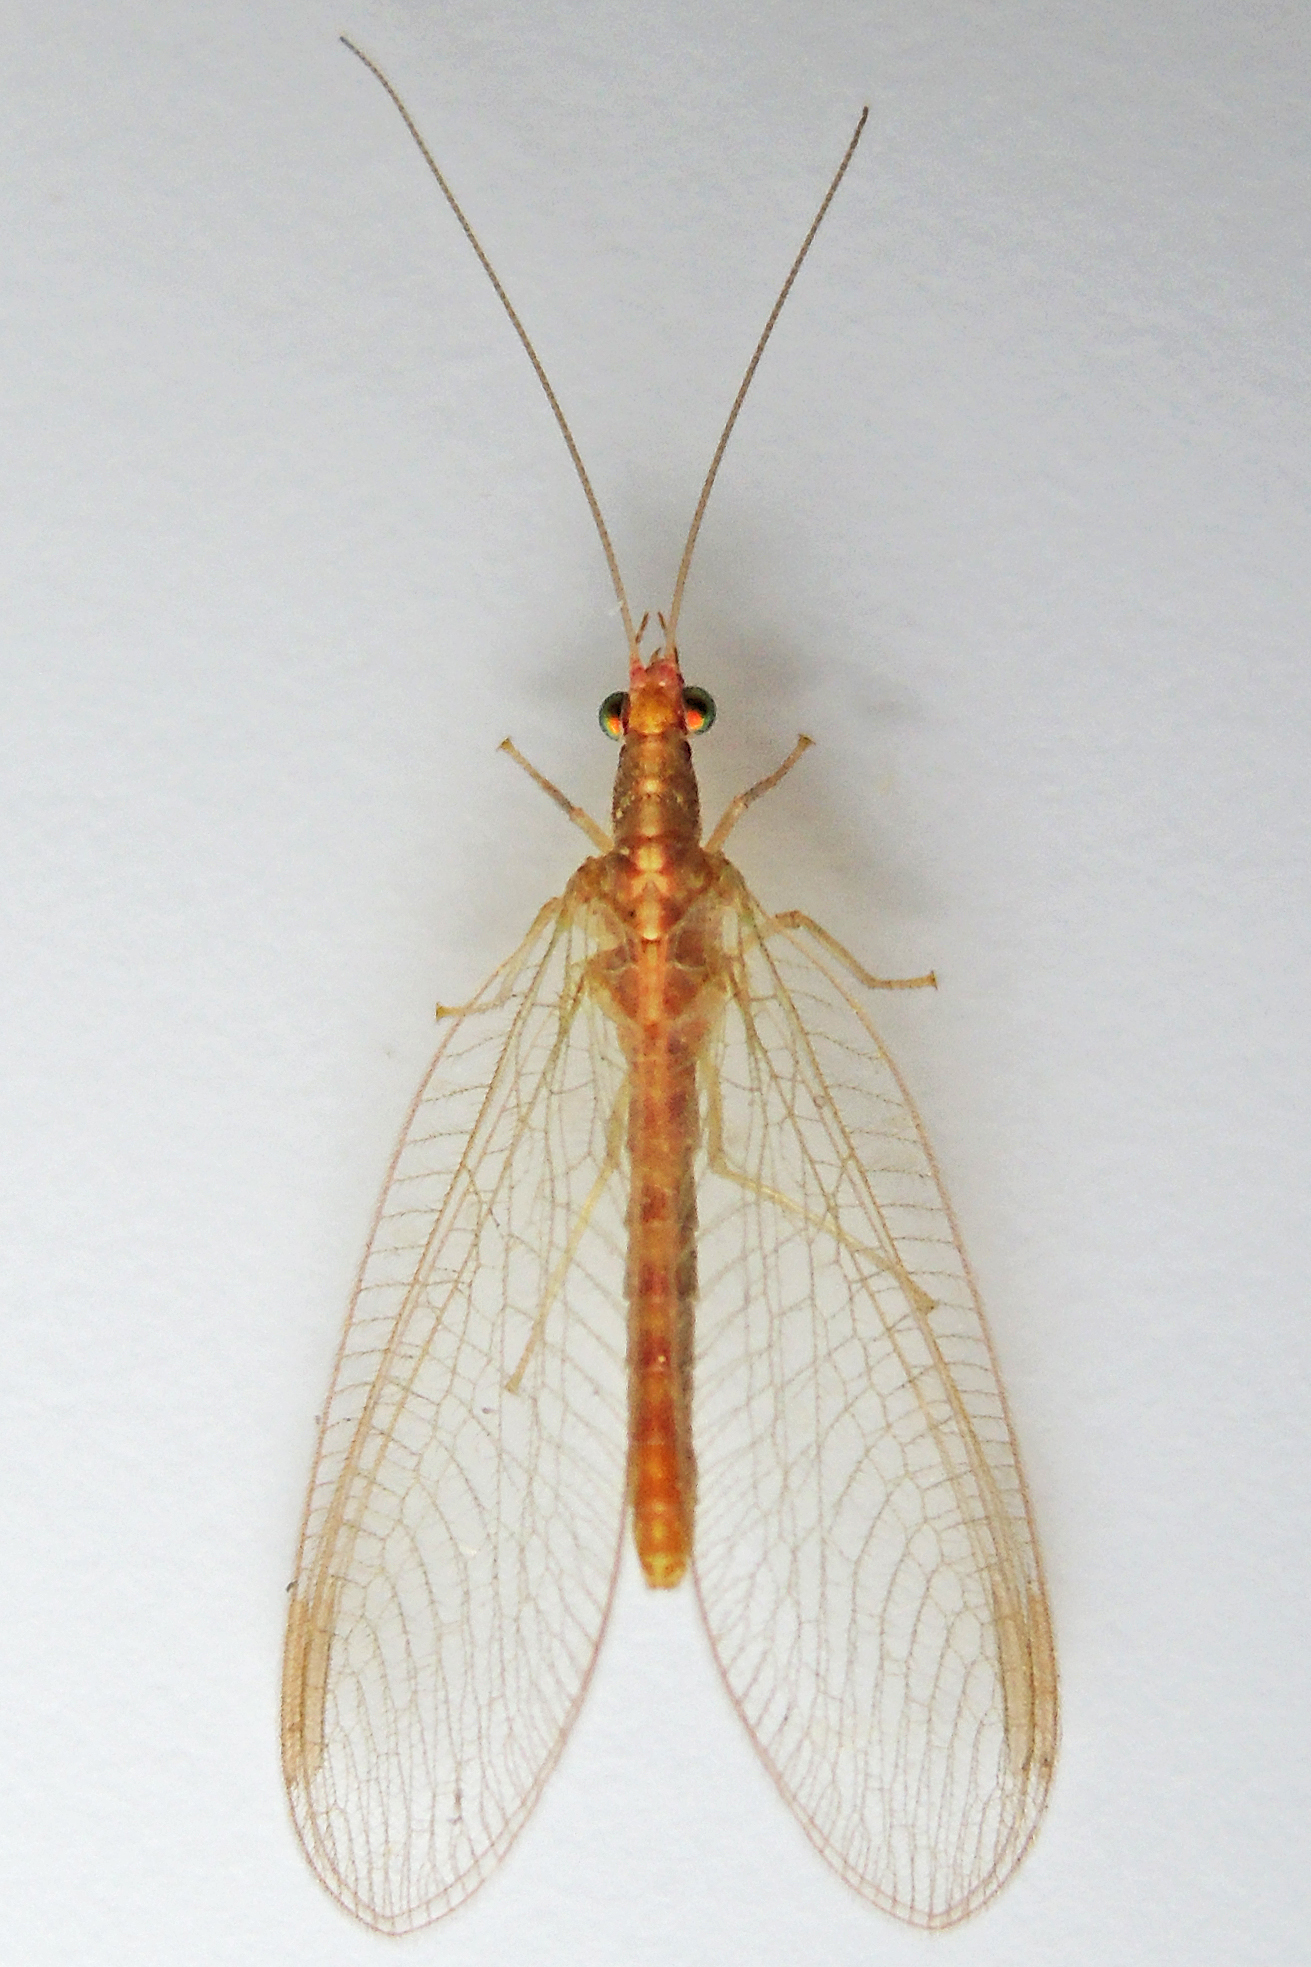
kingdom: Animalia
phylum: Arthropoda
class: Insecta
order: Neuroptera
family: Chrysopidae
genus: Chrysoperla
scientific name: Chrysoperla
